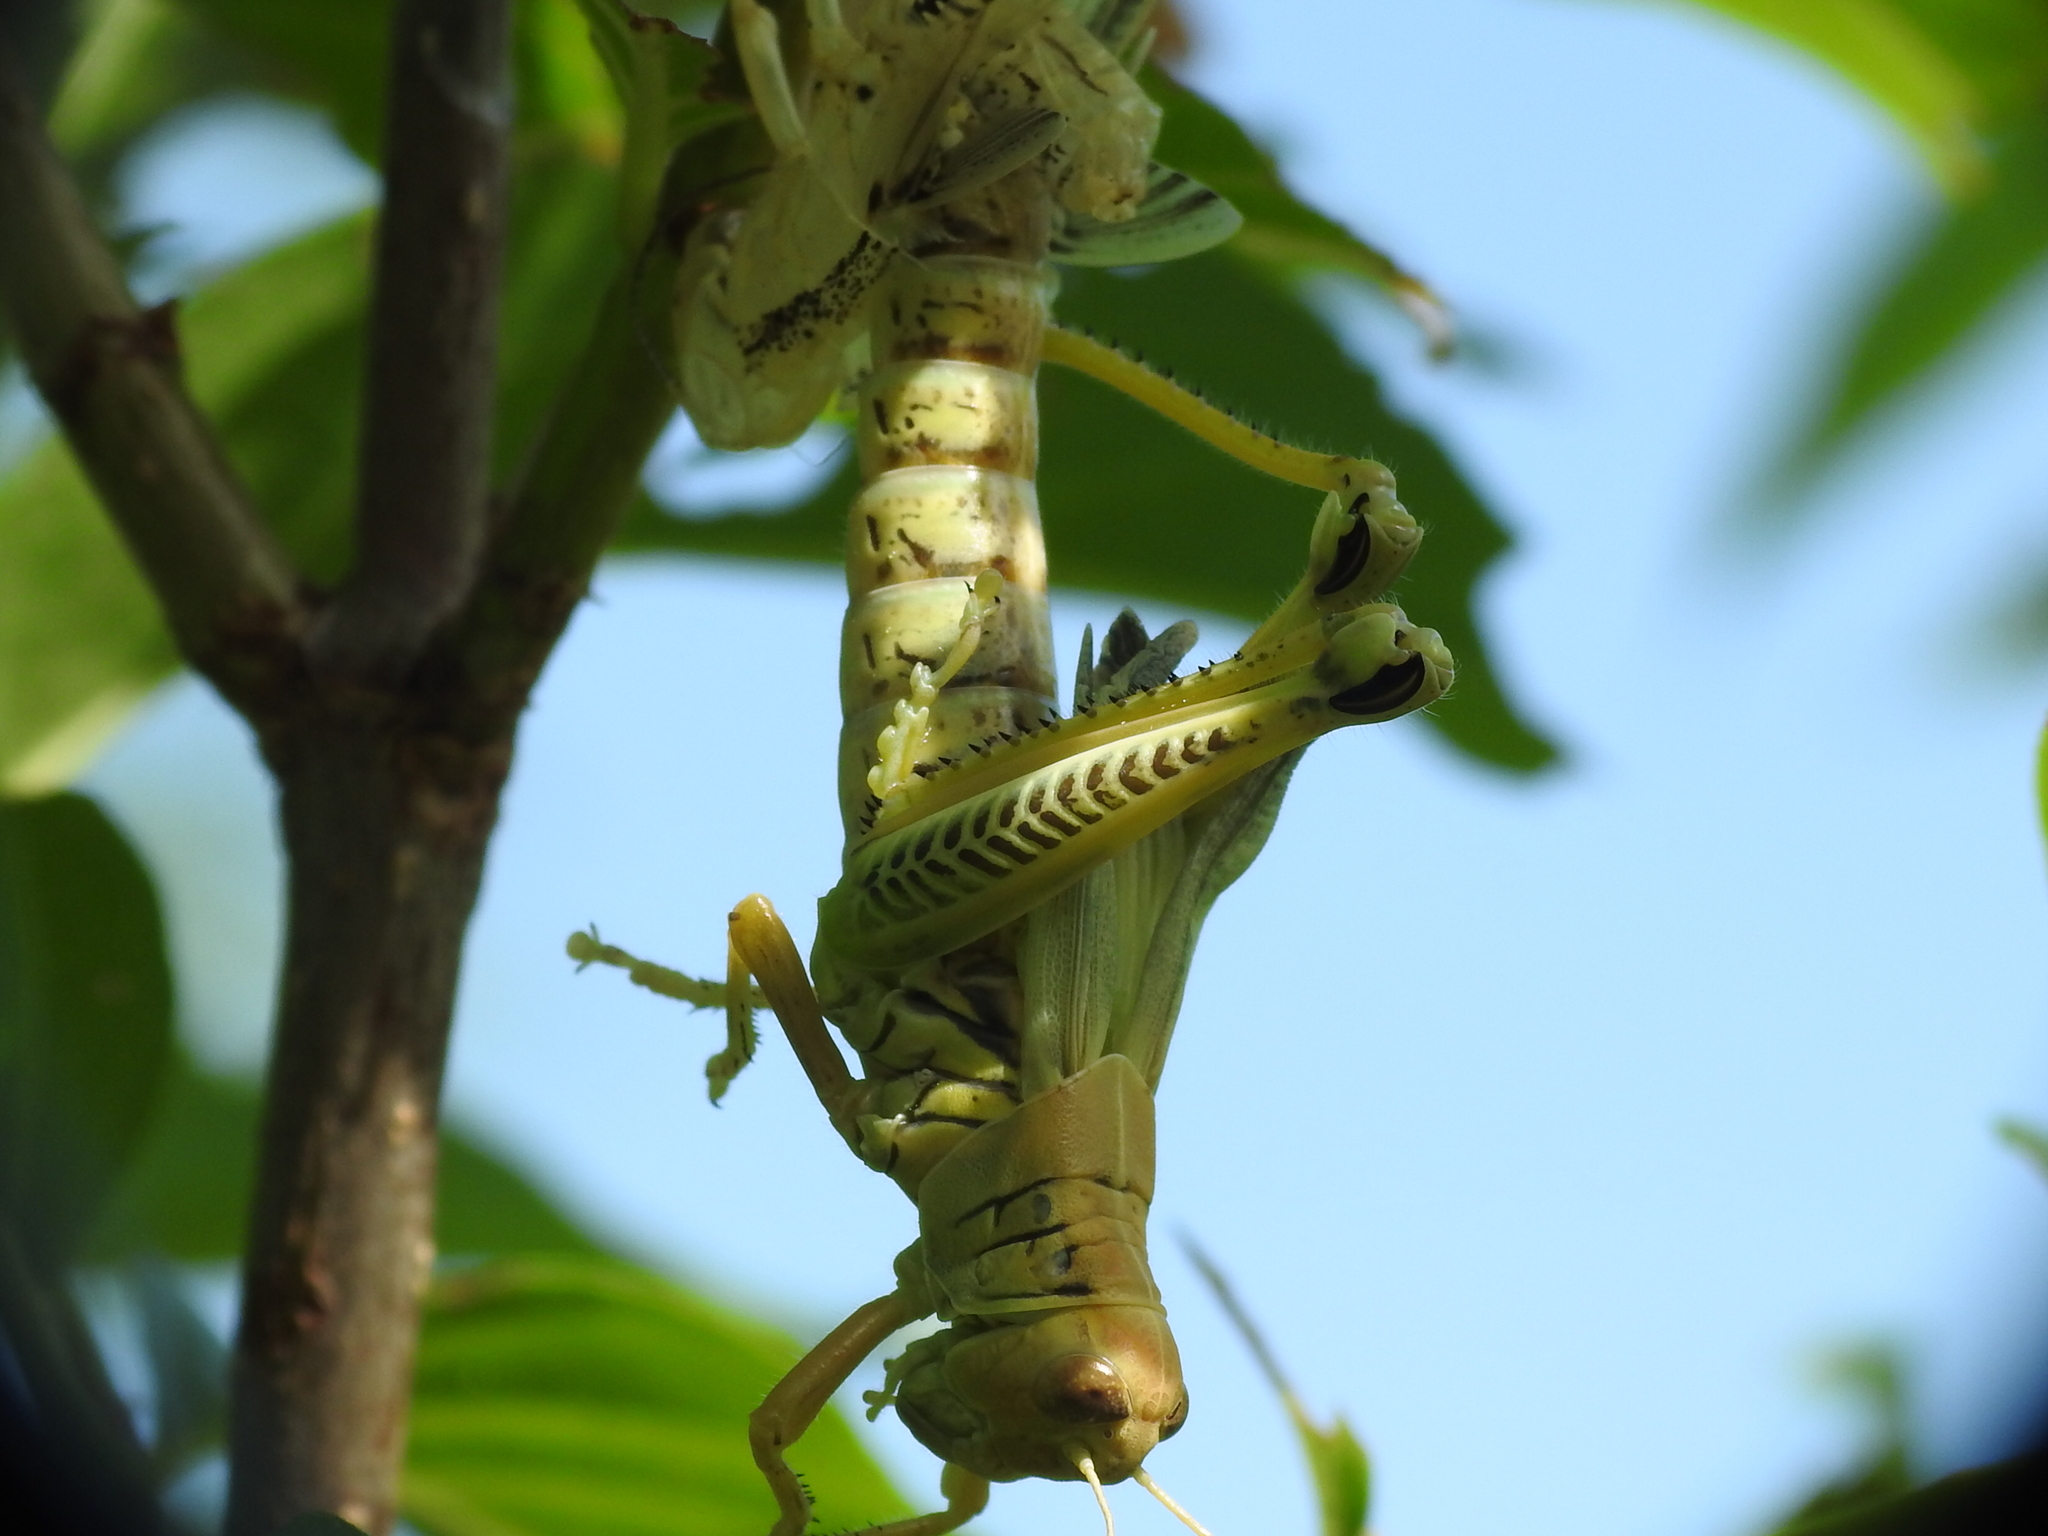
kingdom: Animalia
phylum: Arthropoda
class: Insecta
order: Orthoptera
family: Acrididae
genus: Melanoplus
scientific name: Melanoplus differentialis
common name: Differential grasshopper
